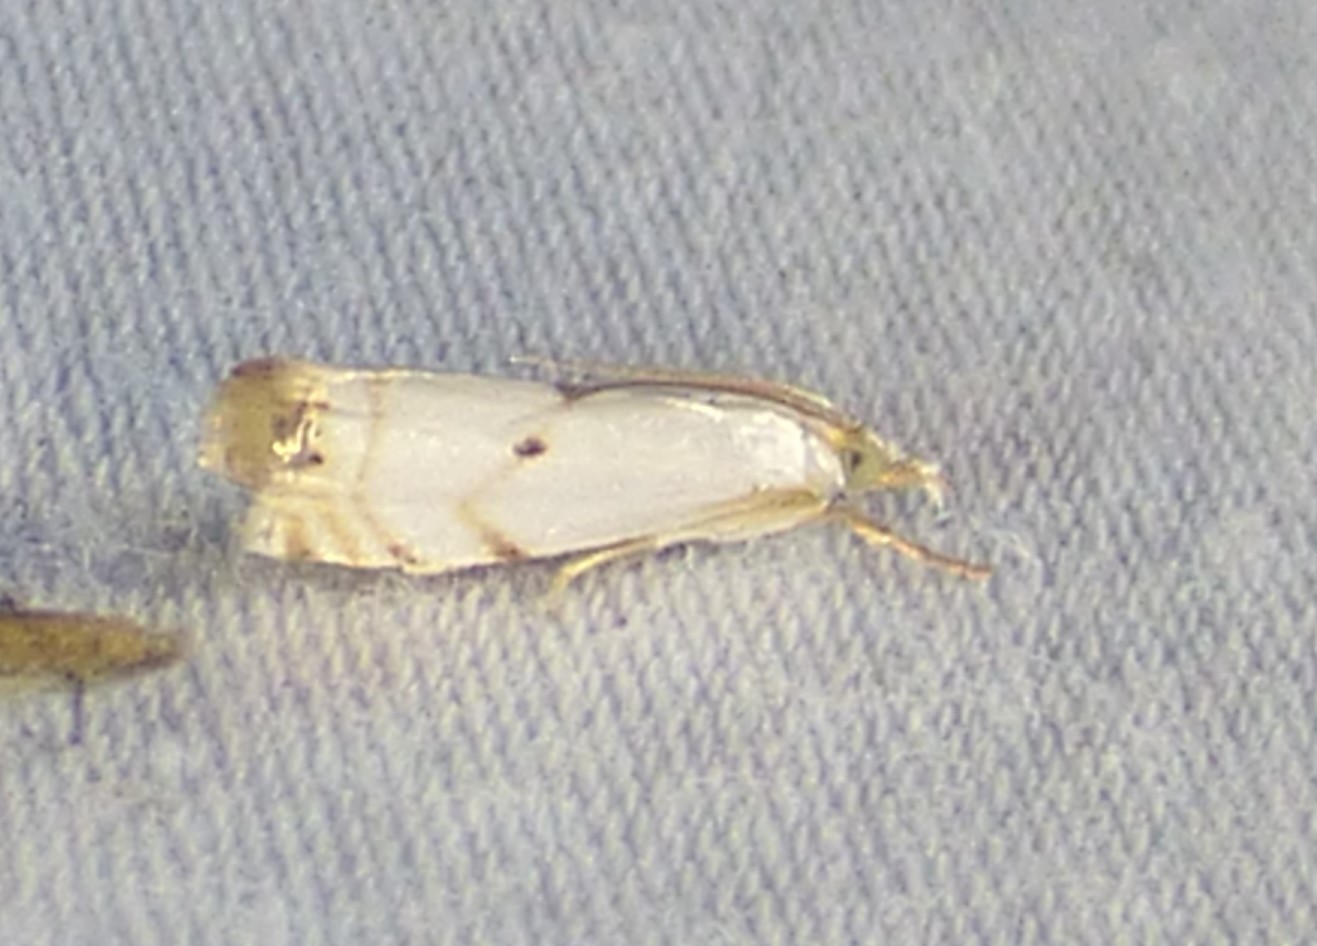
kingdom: Animalia
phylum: Arthropoda
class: Insecta
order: Lepidoptera
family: Crambidae
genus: Microcrambus
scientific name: Microcrambus biguttellus
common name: Gold-stripe grass-veneer moth
